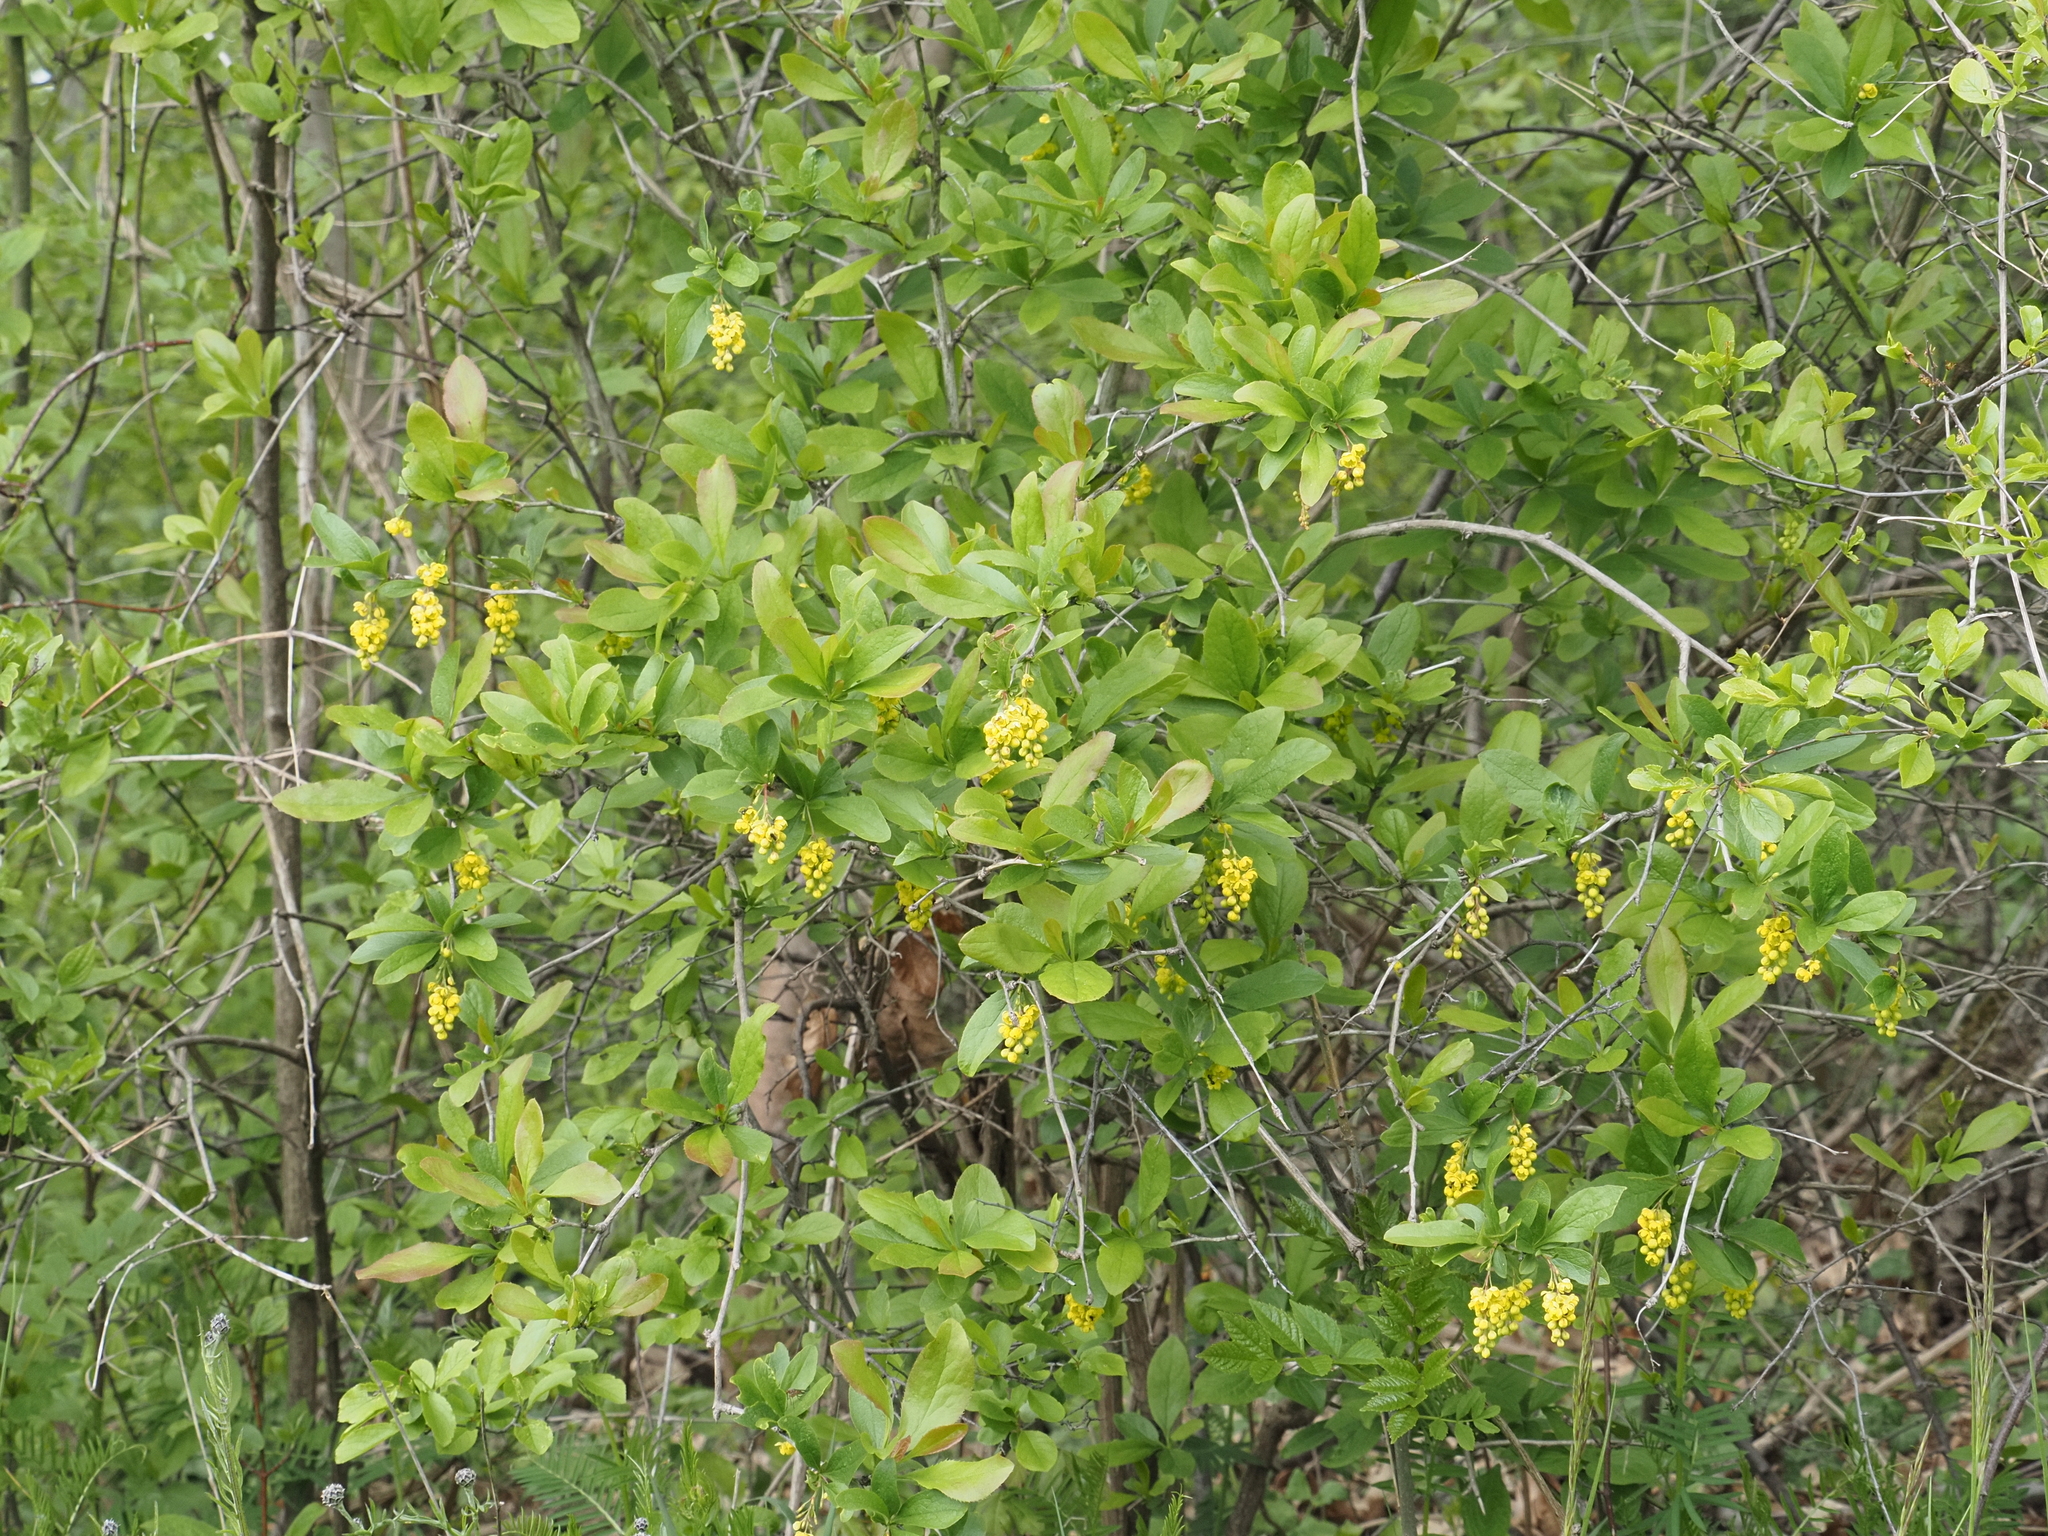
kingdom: Plantae
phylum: Tracheophyta
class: Magnoliopsida
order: Ranunculales
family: Berberidaceae
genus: Berberis
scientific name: Berberis vulgaris
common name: Barberry
